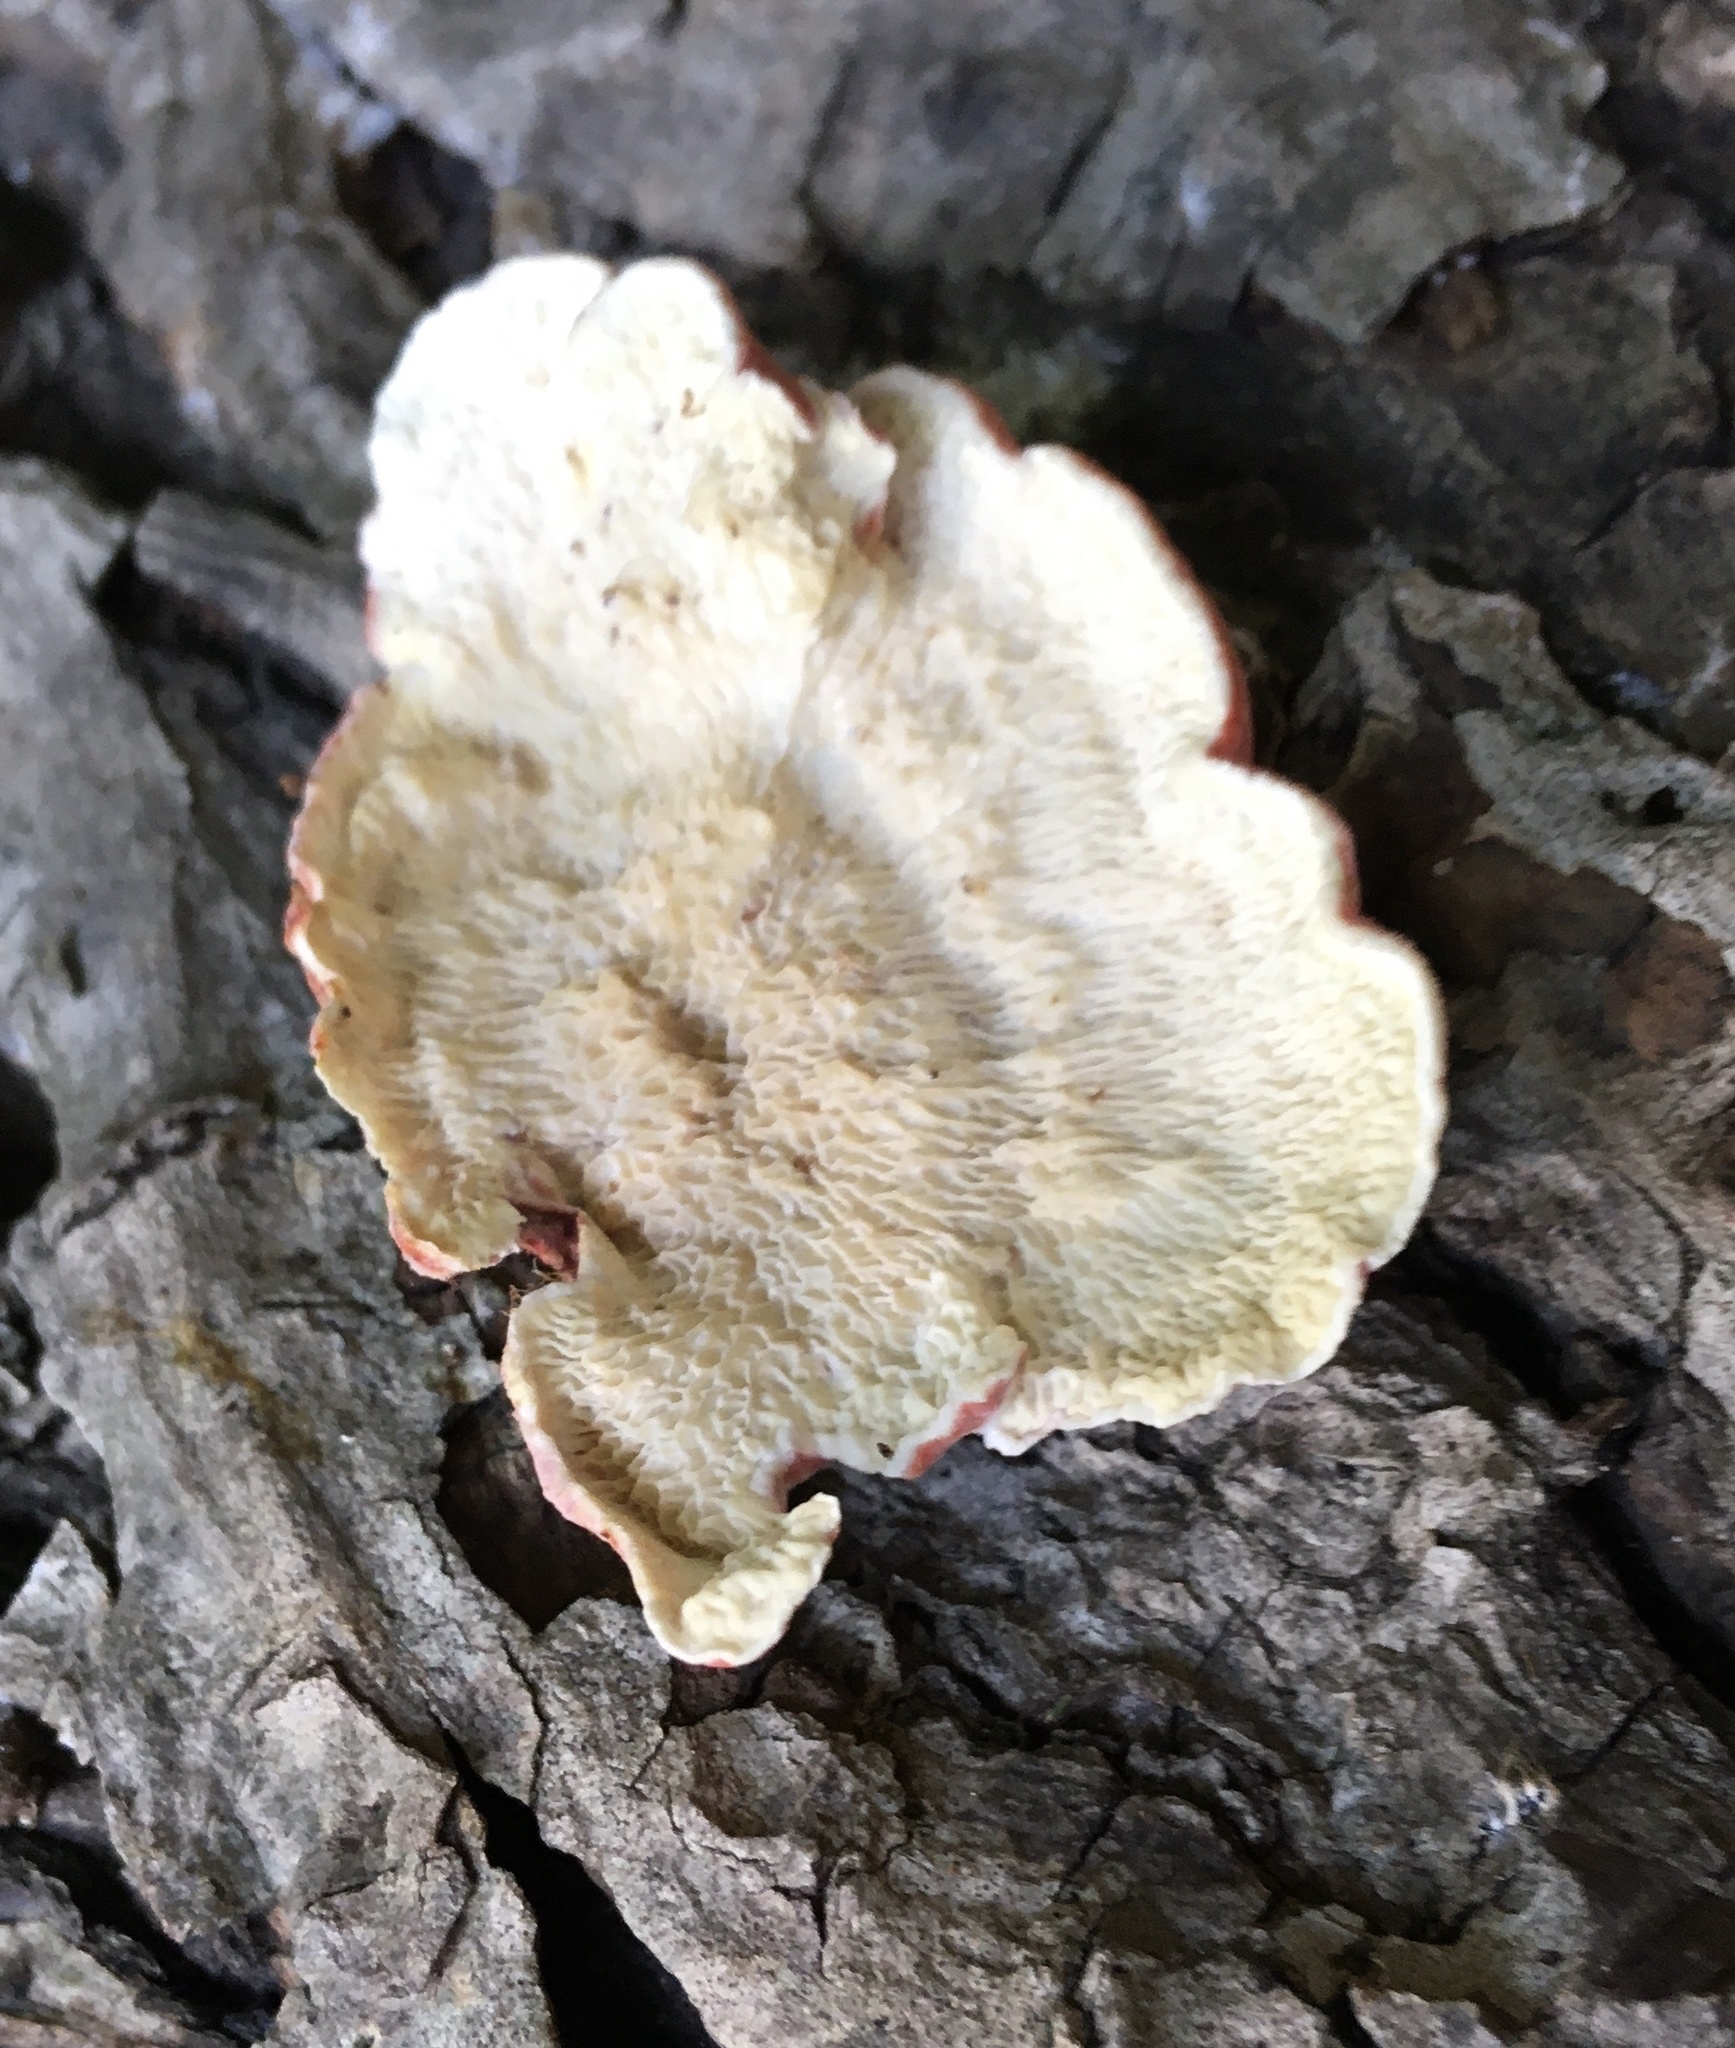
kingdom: Fungi
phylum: Basidiomycota
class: Agaricomycetes
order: Polyporales
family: Irpicaceae
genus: Byssomerulius
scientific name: Byssomerulius incarnatus
